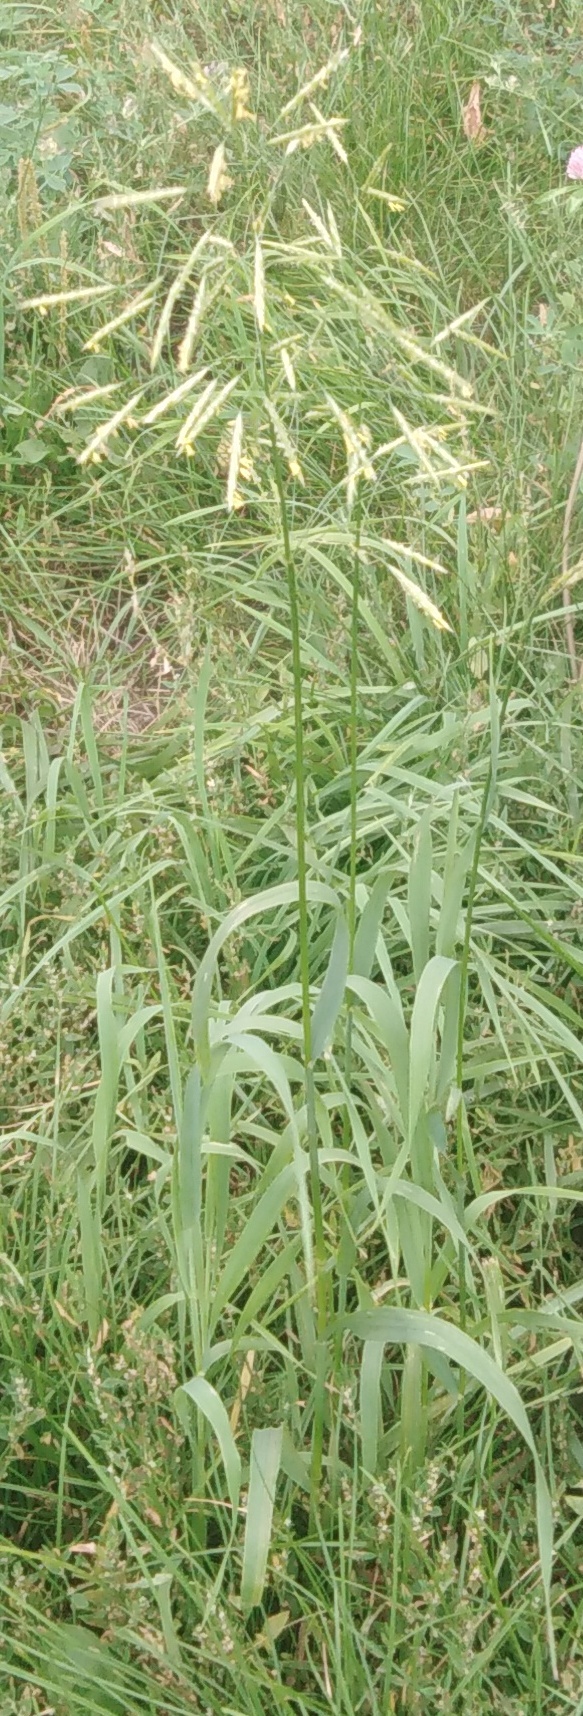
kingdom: Plantae
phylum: Tracheophyta
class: Liliopsida
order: Poales
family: Poaceae
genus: Bromus
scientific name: Bromus inermis
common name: Smooth brome
